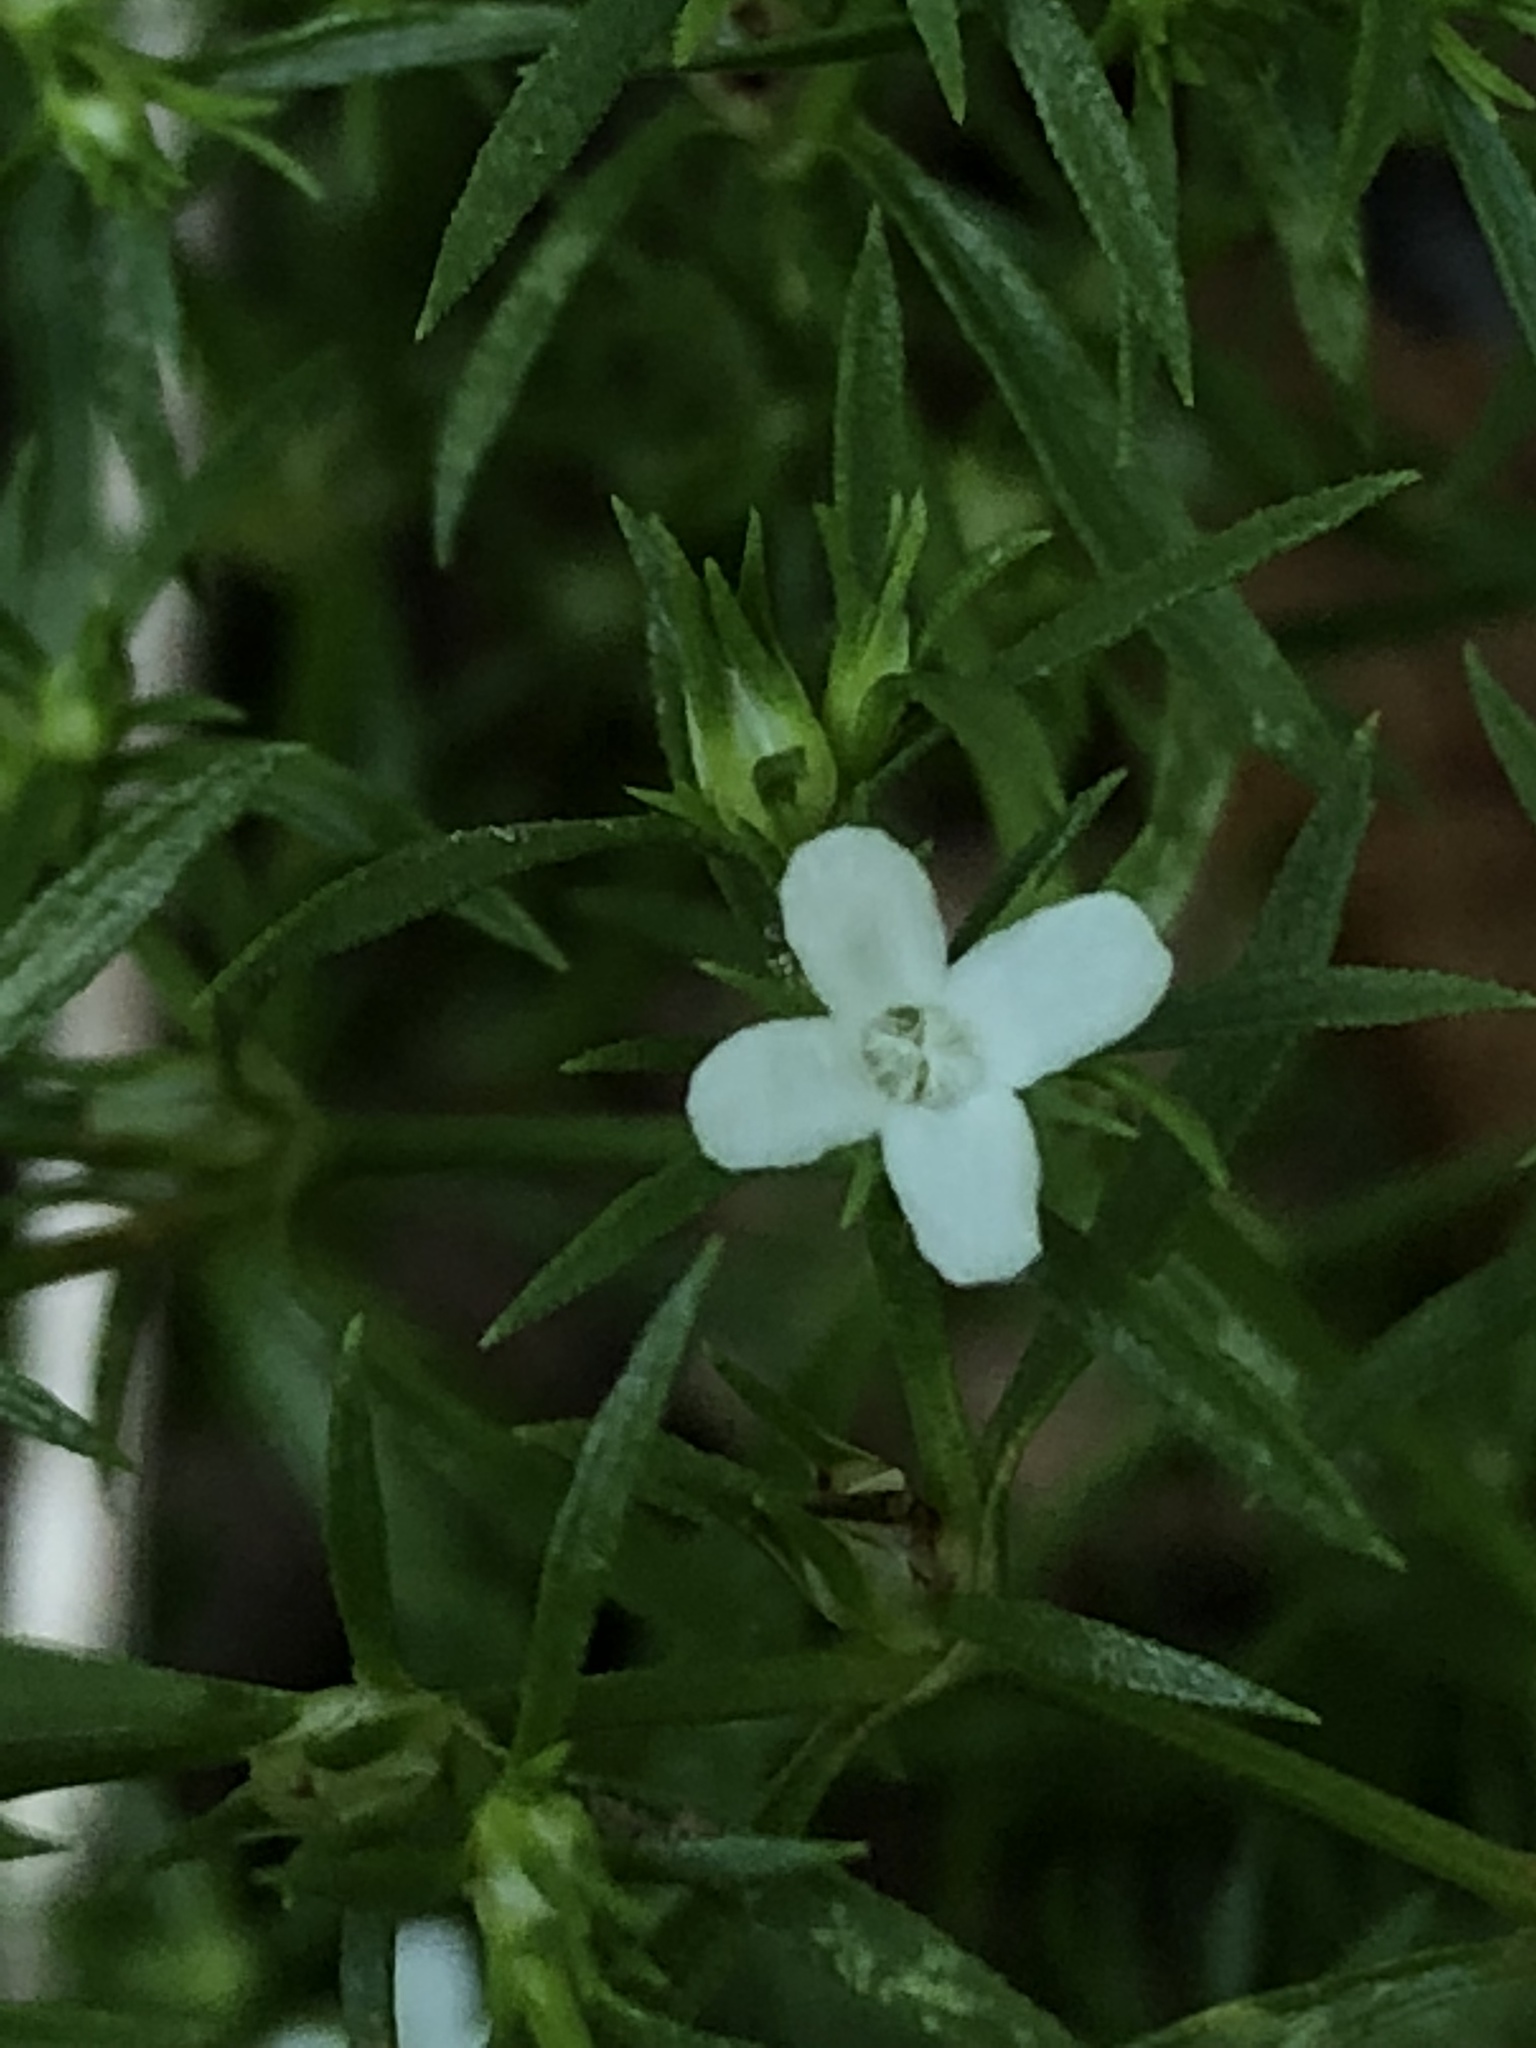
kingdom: Plantae
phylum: Tracheophyta
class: Magnoliopsida
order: Lamiales
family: Tetrachondraceae
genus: Polypremum
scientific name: Polypremum procumbens
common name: Juniper-leaf
